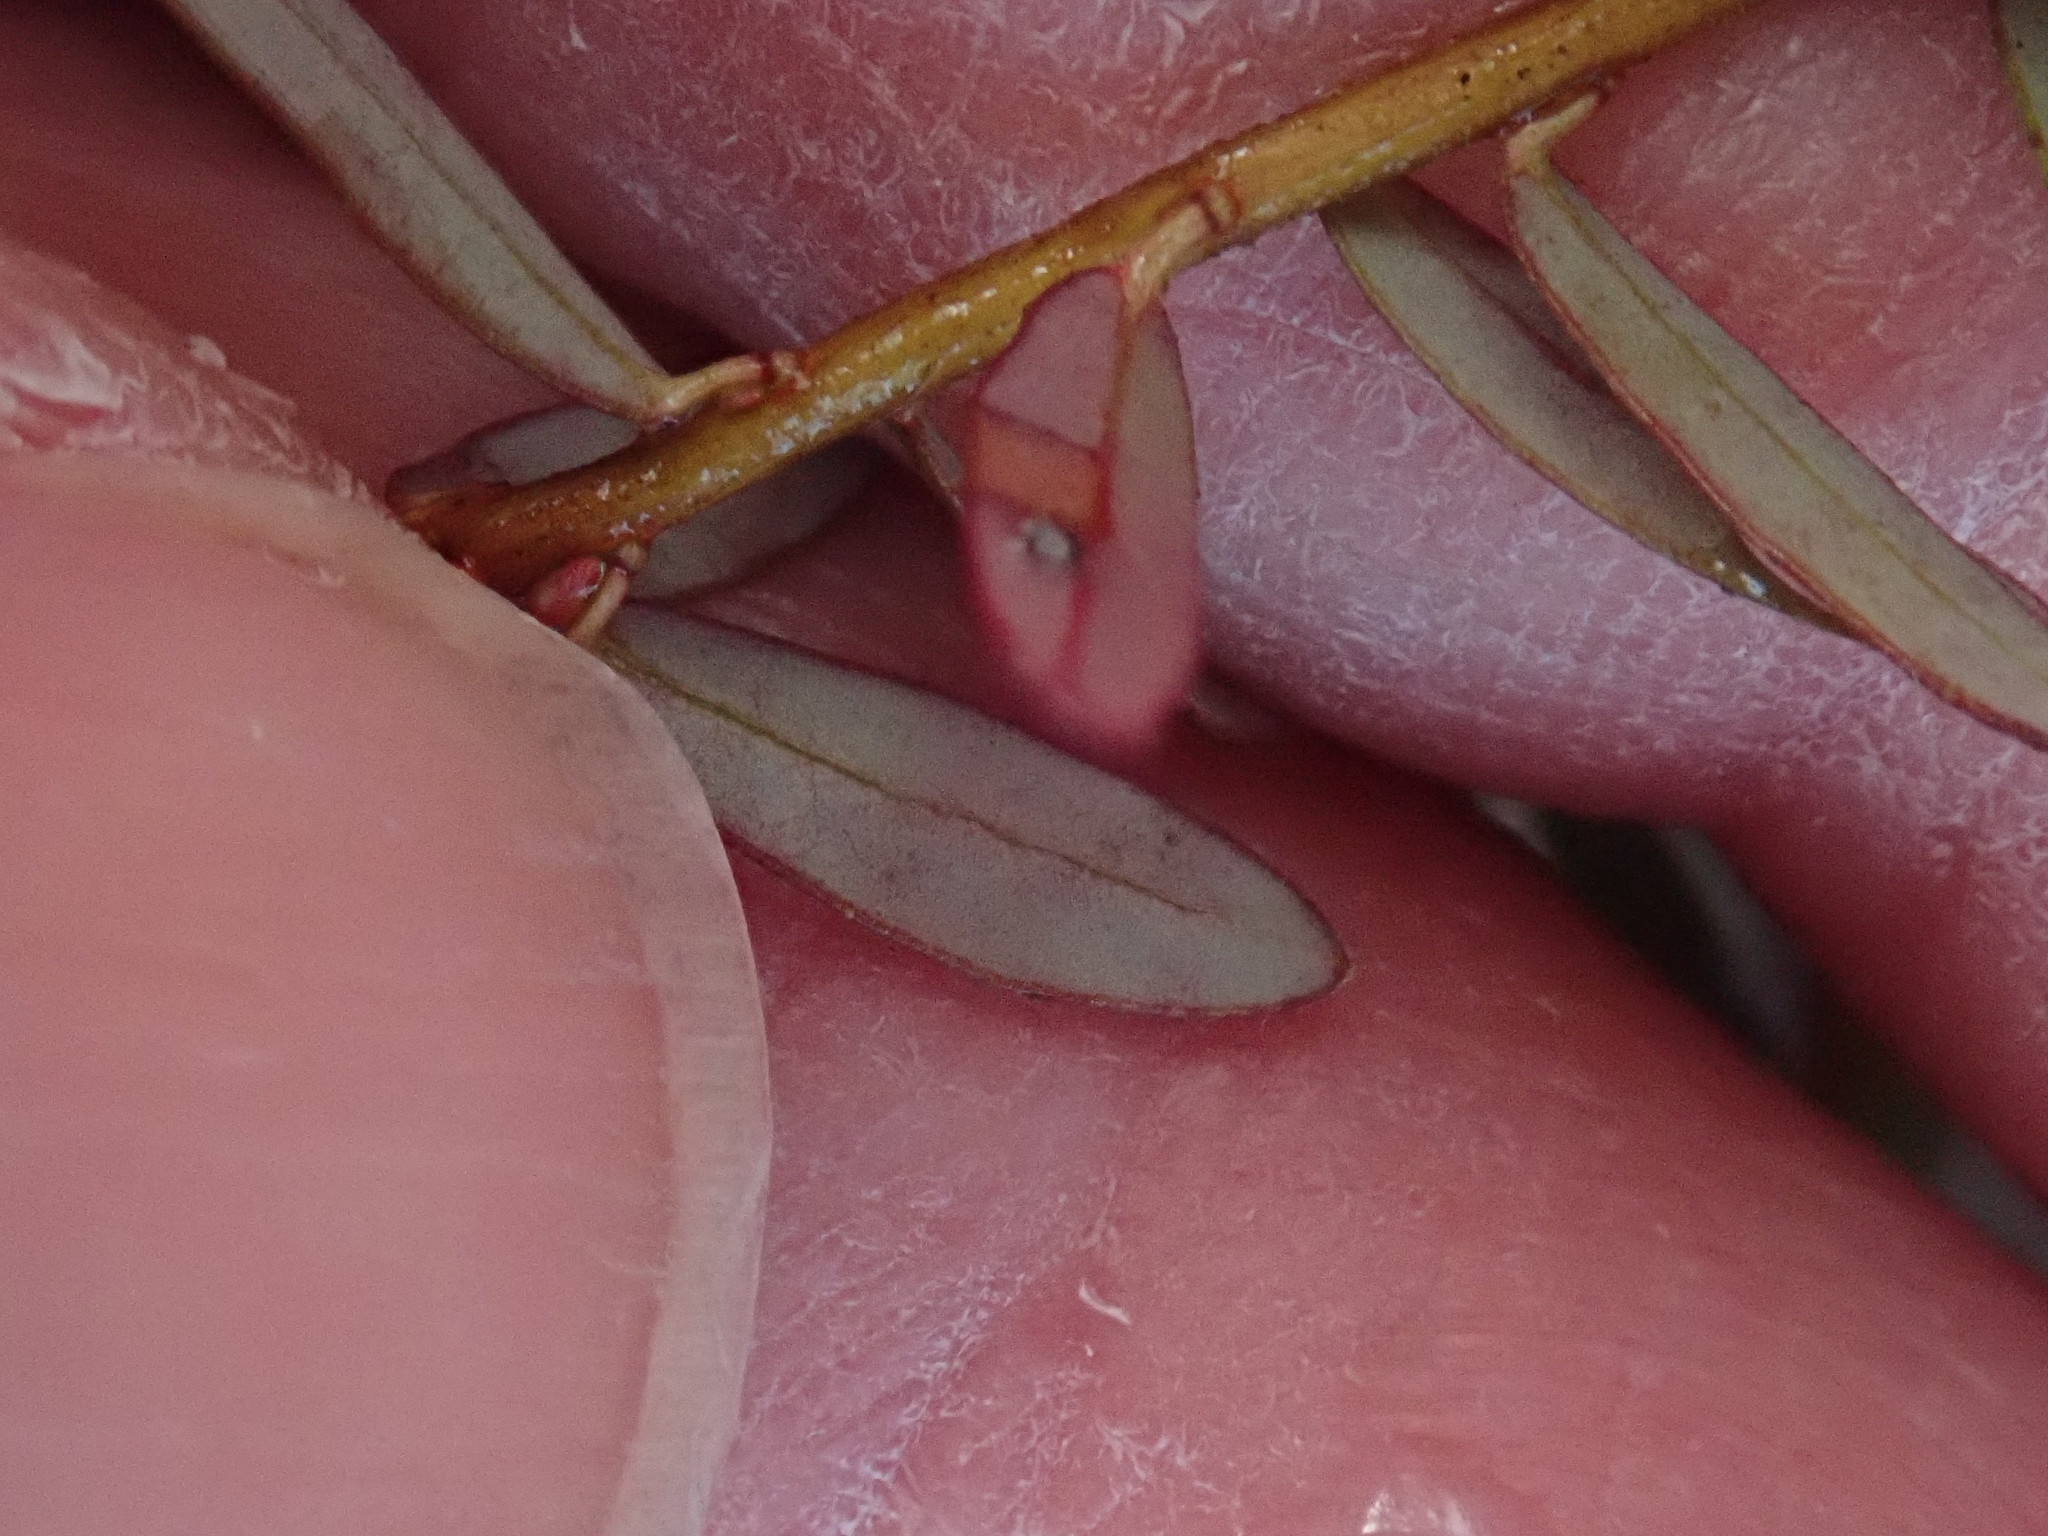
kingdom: Plantae
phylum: Tracheophyta
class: Magnoliopsida
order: Ericales
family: Ericaceae
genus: Vaccinium
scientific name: Vaccinium macrocarpon
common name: American cranberry
